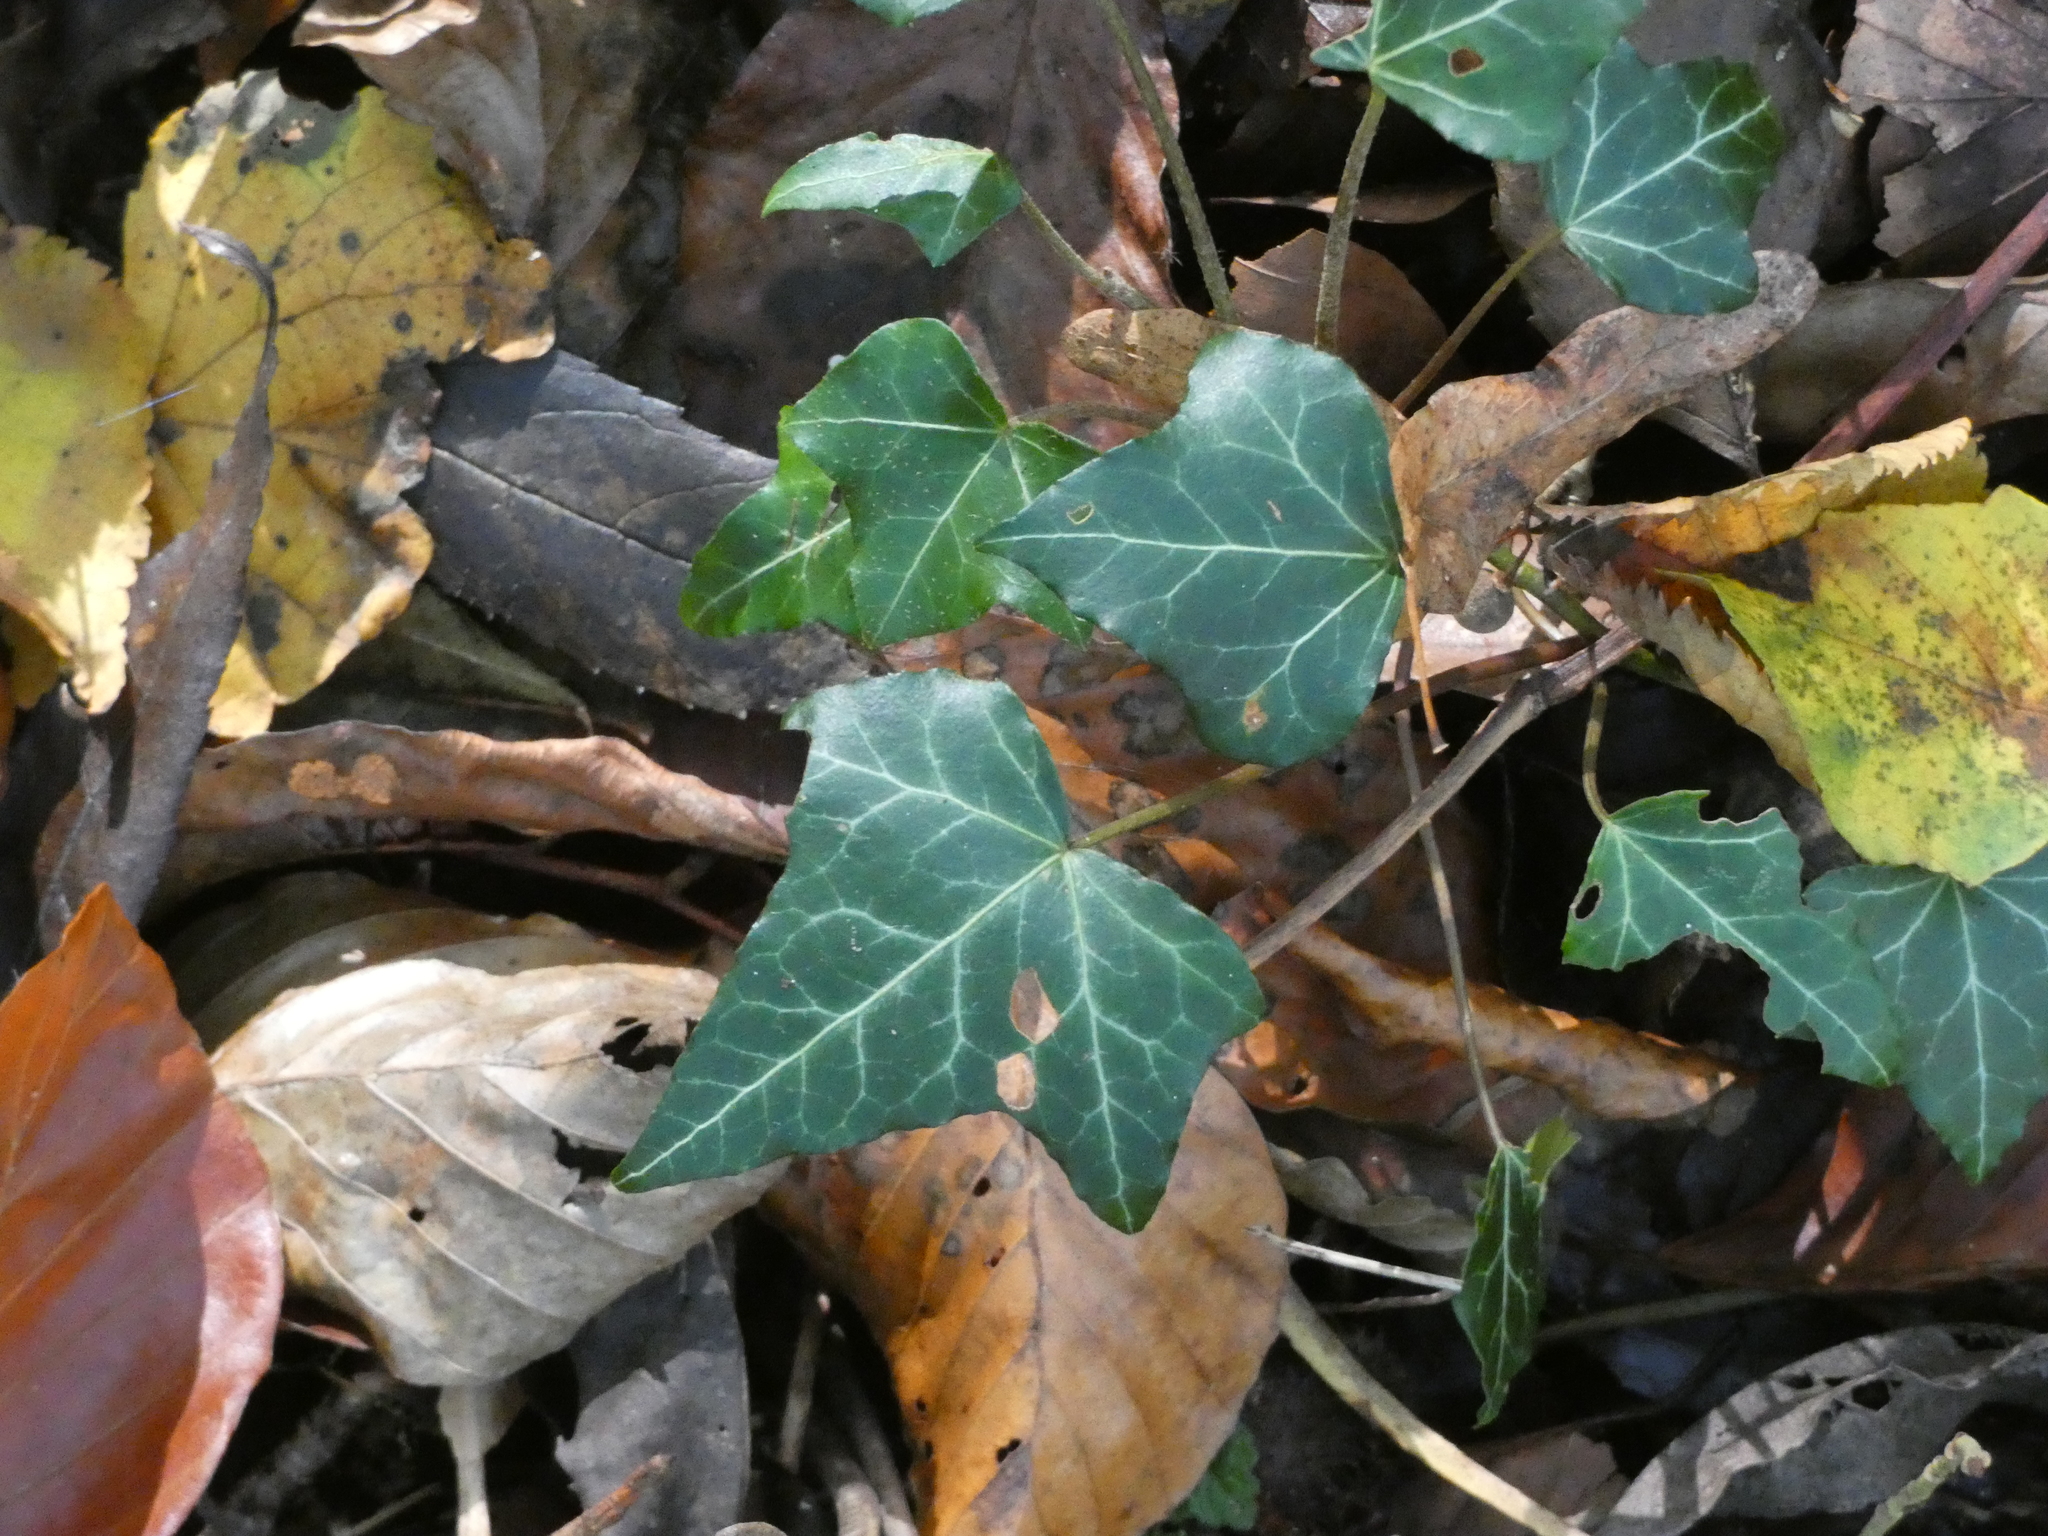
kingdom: Plantae
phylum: Tracheophyta
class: Magnoliopsida
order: Apiales
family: Araliaceae
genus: Hedera
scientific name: Hedera helix
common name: Ivy
